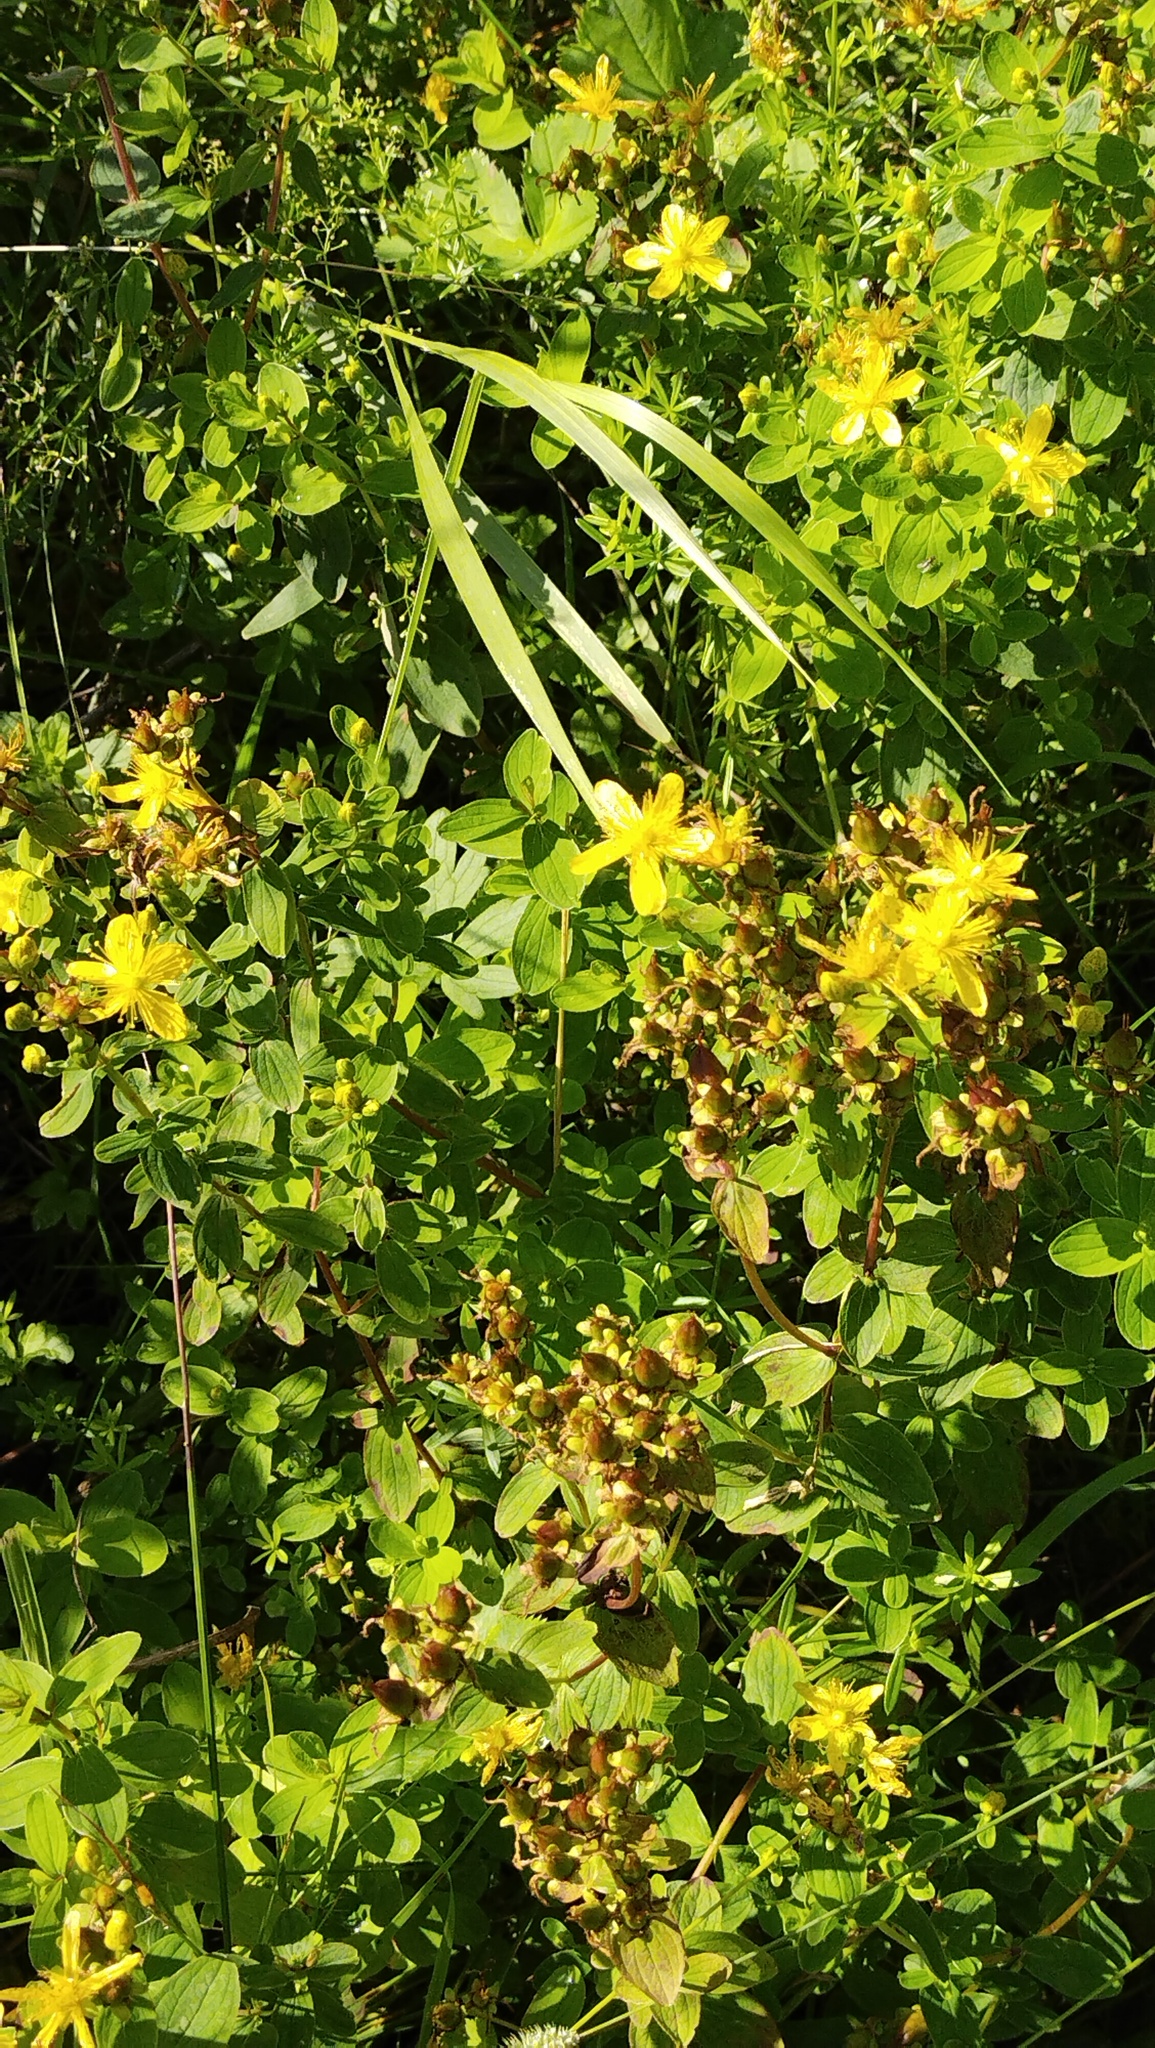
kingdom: Plantae
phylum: Tracheophyta
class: Magnoliopsida
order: Malpighiales
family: Hypericaceae
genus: Hypericum
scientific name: Hypericum maculatum
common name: Imperforate st. john's-wort
